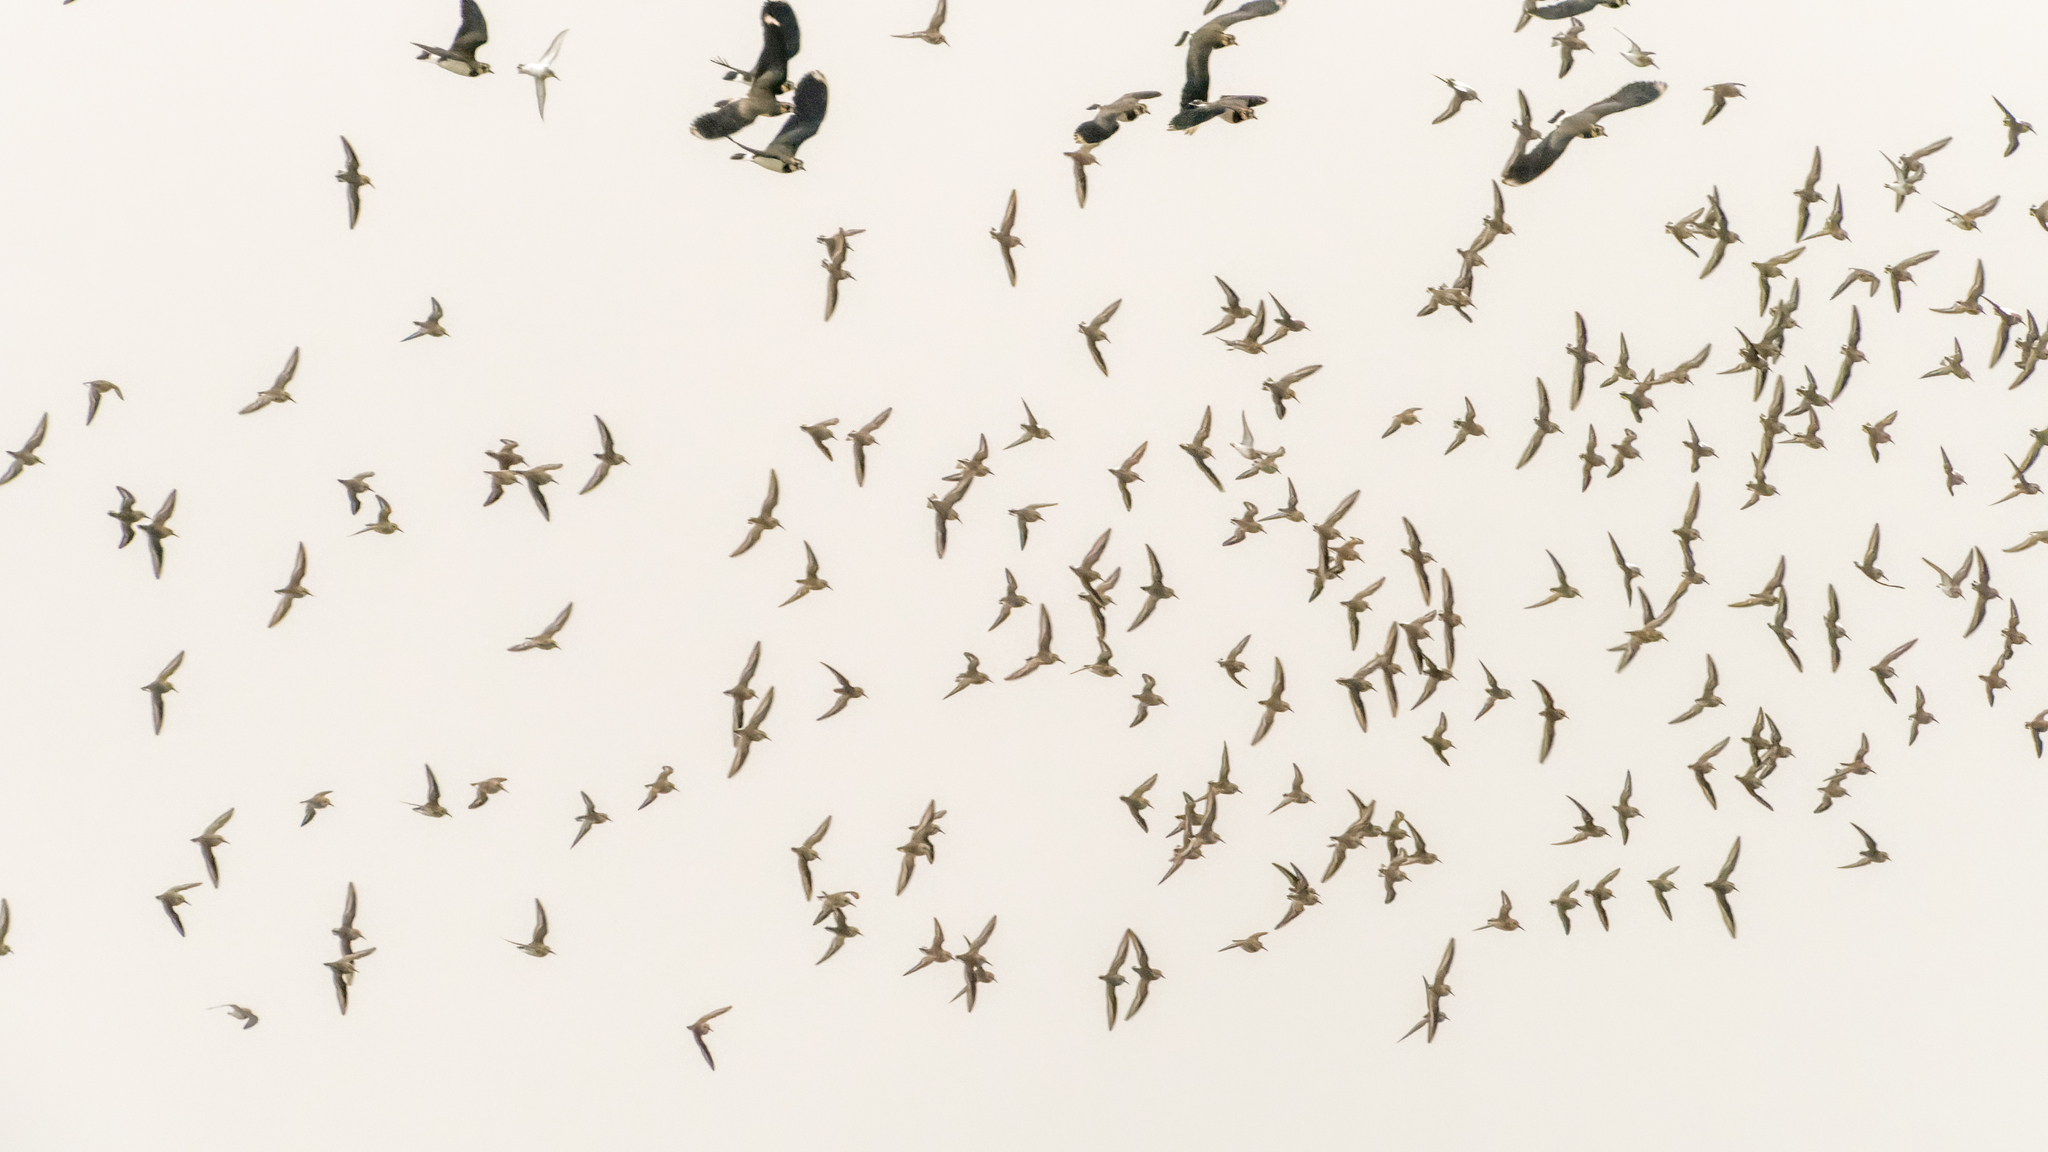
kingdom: Animalia
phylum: Chordata
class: Aves
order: Charadriiformes
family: Scolopacidae
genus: Calidris
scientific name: Calidris alpina
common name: Dunlin
